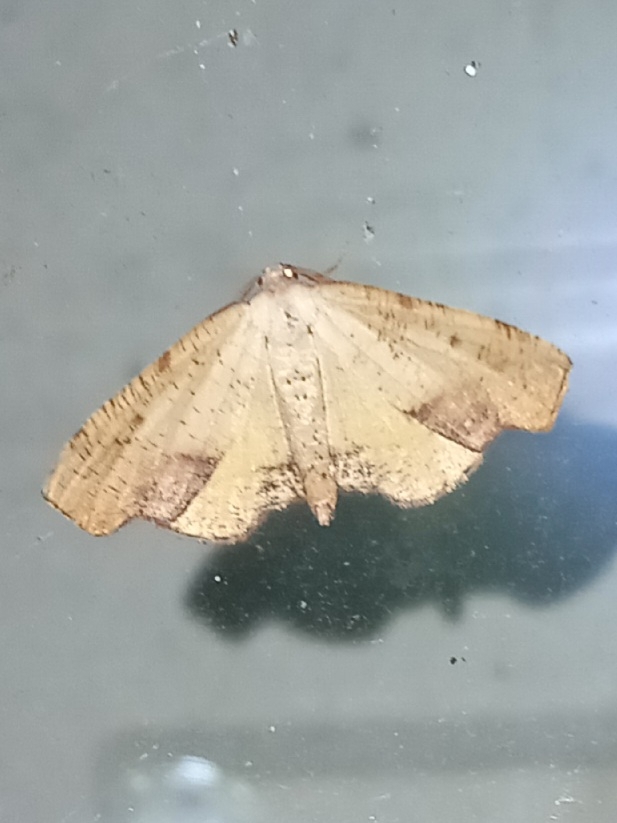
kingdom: Animalia
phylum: Arthropoda
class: Insecta
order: Lepidoptera
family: Geometridae
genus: Plagodis
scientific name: Plagodis fervidaria
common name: Fervid plagodis
